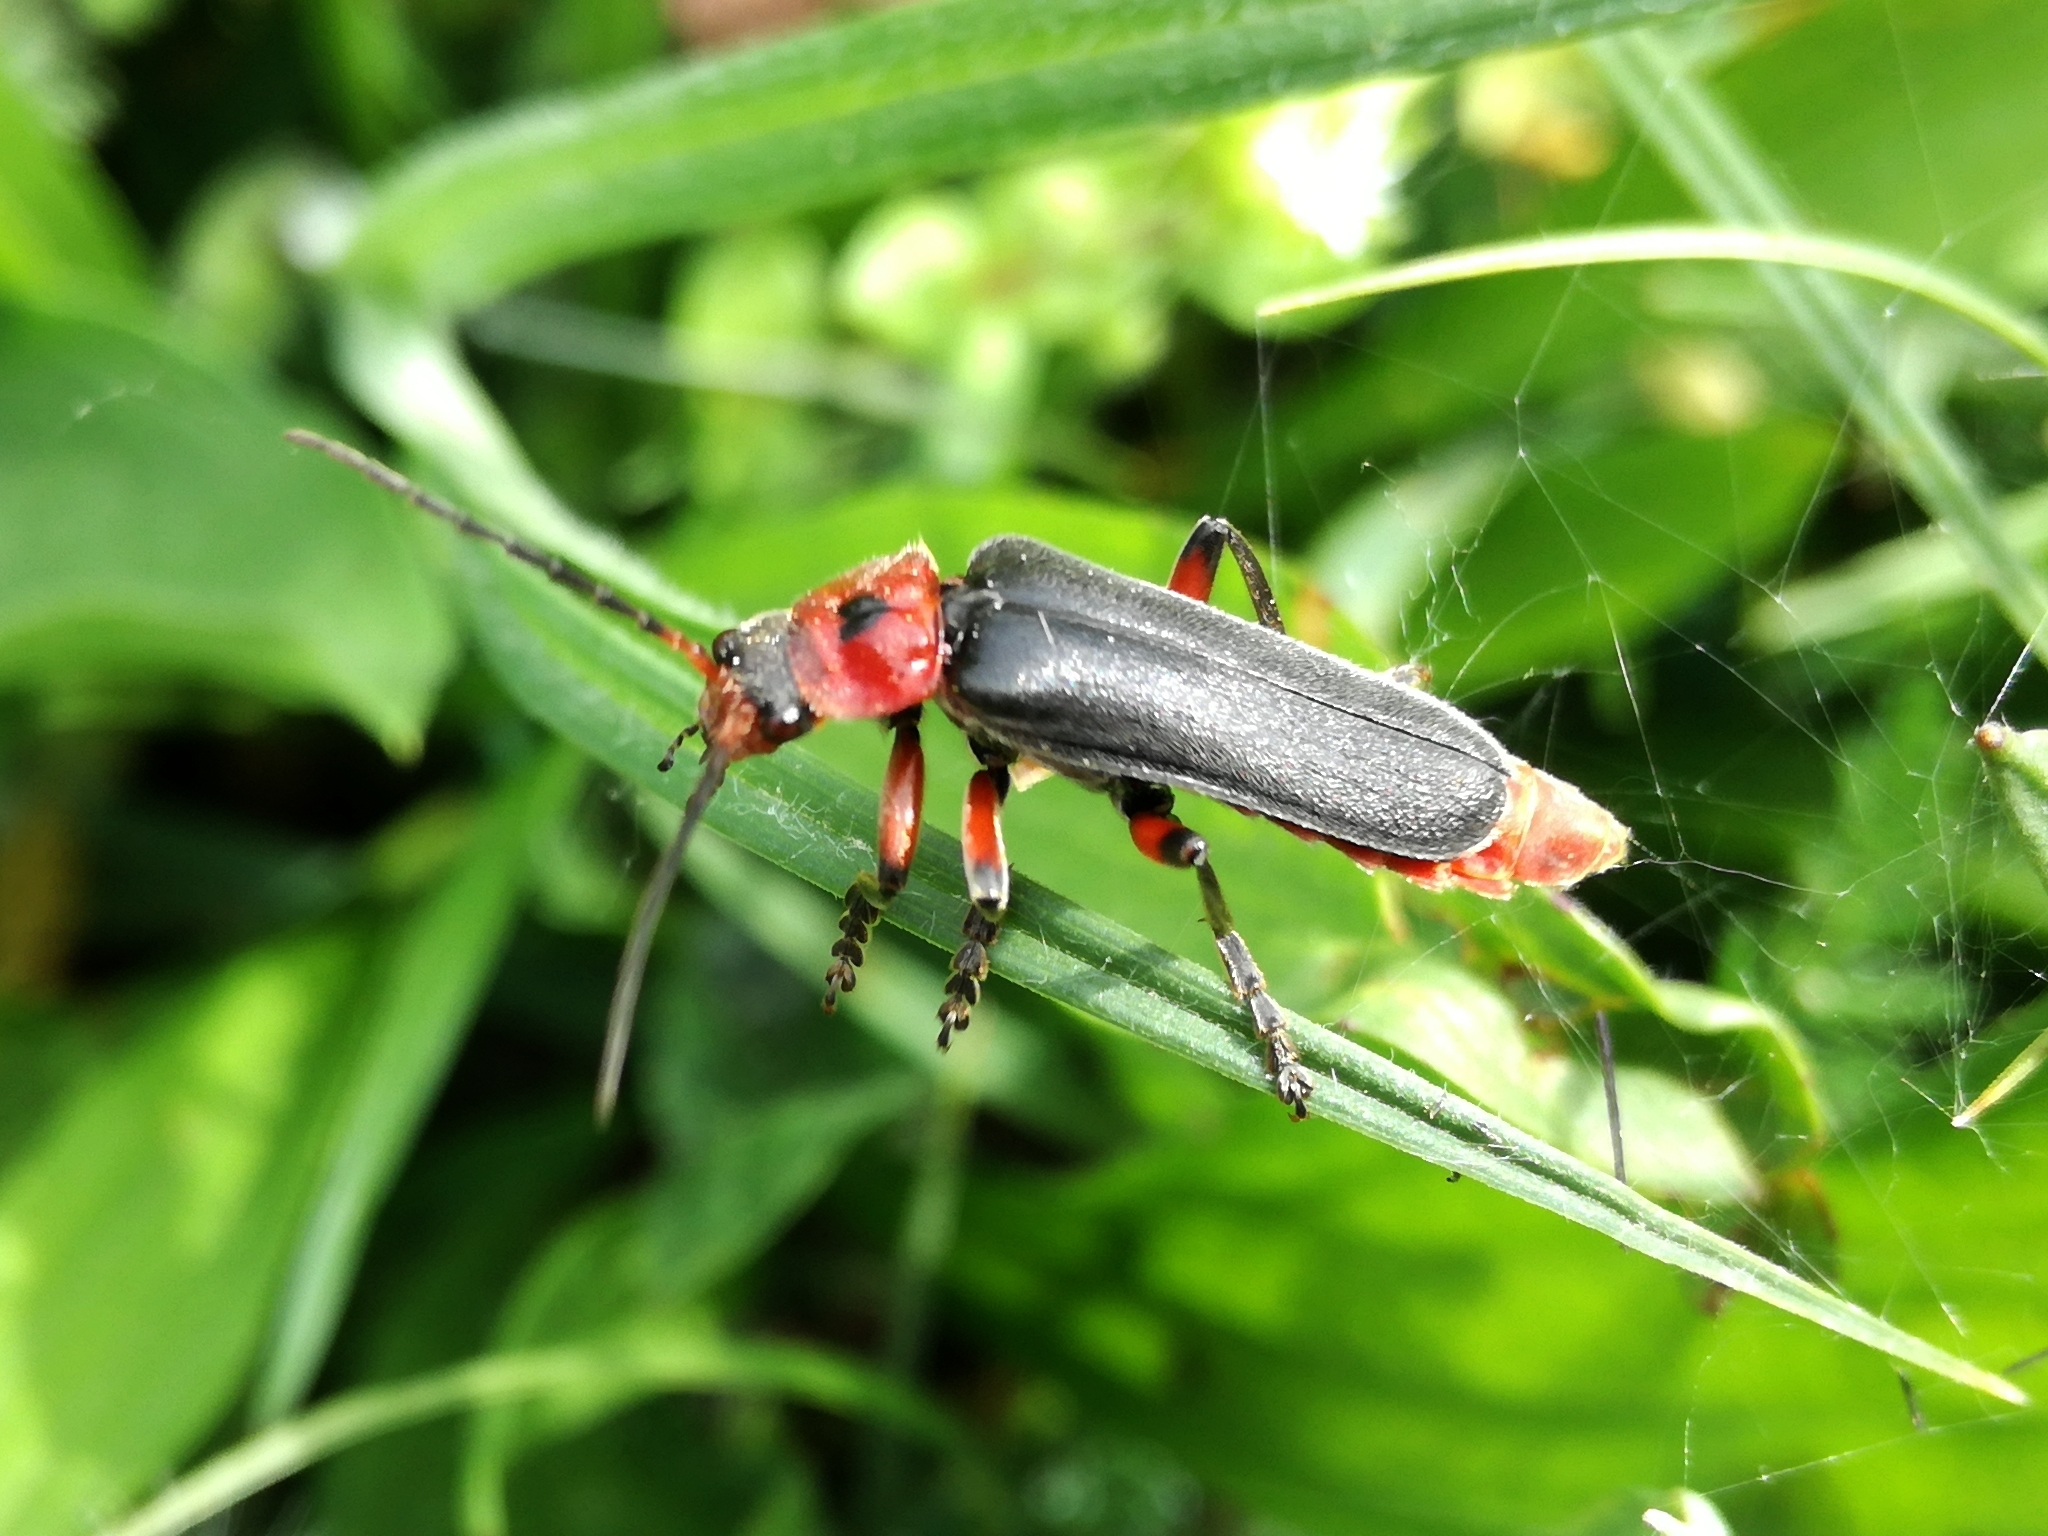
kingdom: Animalia
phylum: Arthropoda
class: Insecta
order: Coleoptera
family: Cantharidae
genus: Cantharis
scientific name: Cantharis rustica
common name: Soldier beetle
